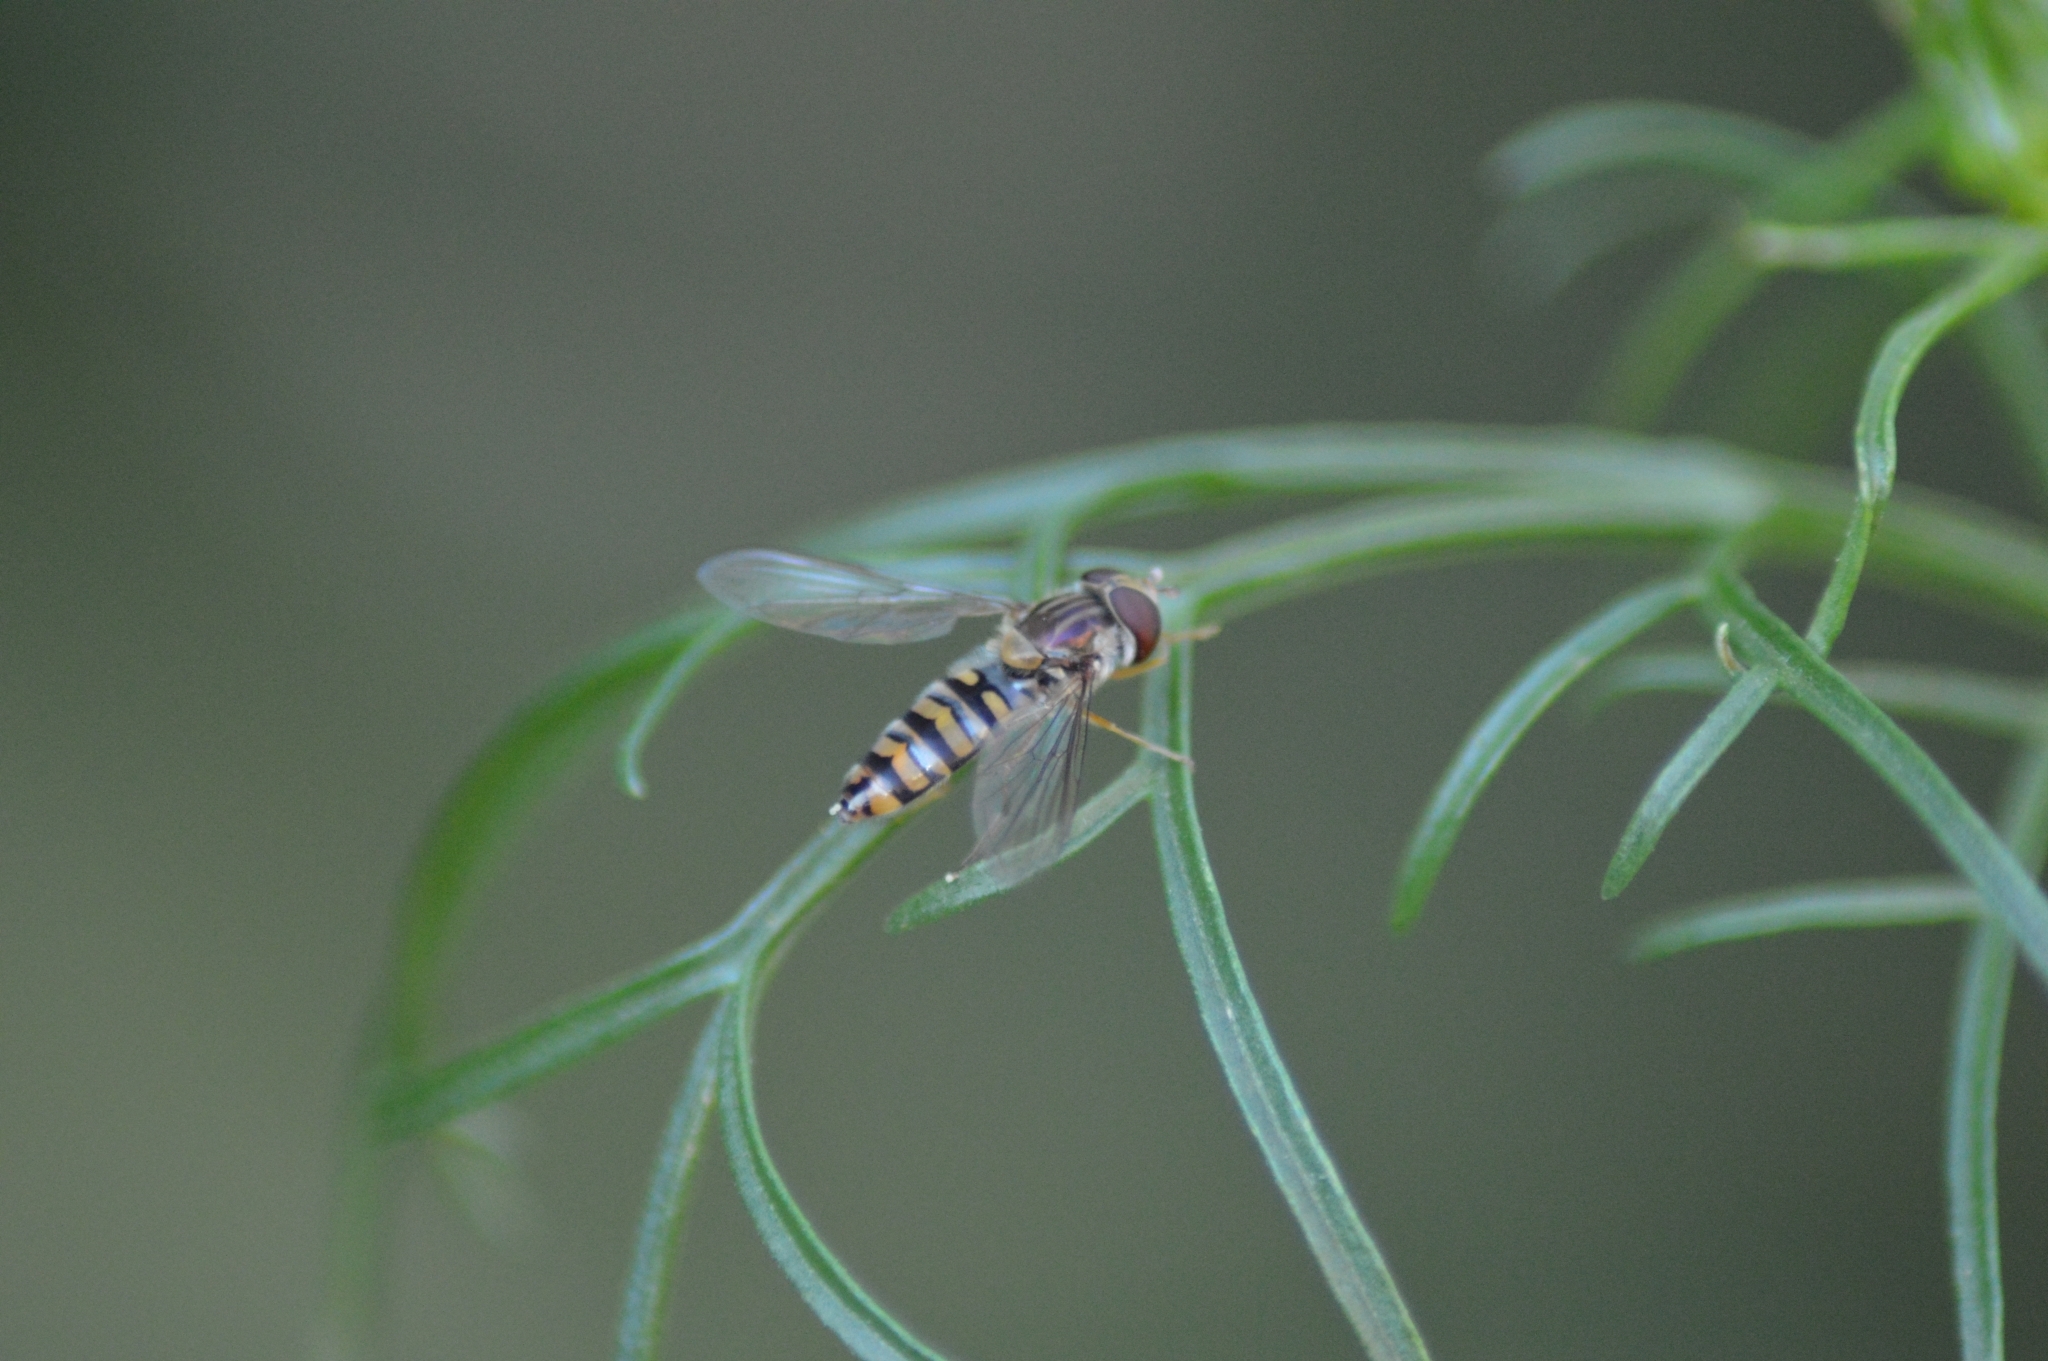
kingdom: Animalia
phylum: Arthropoda
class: Insecta
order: Diptera
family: Syrphidae
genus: Episyrphus
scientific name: Episyrphus balteatus
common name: Marmalade hoverfly
